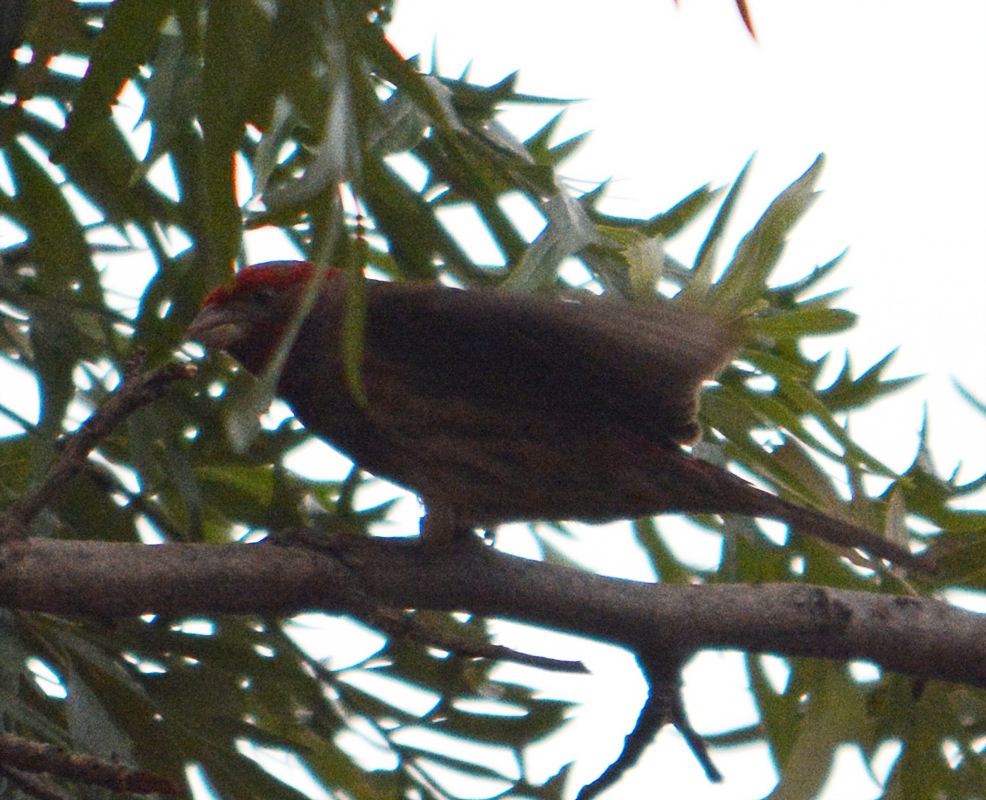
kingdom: Animalia
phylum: Chordata
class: Aves
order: Passeriformes
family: Fringillidae
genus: Haemorhous
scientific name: Haemorhous mexicanus
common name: House finch
